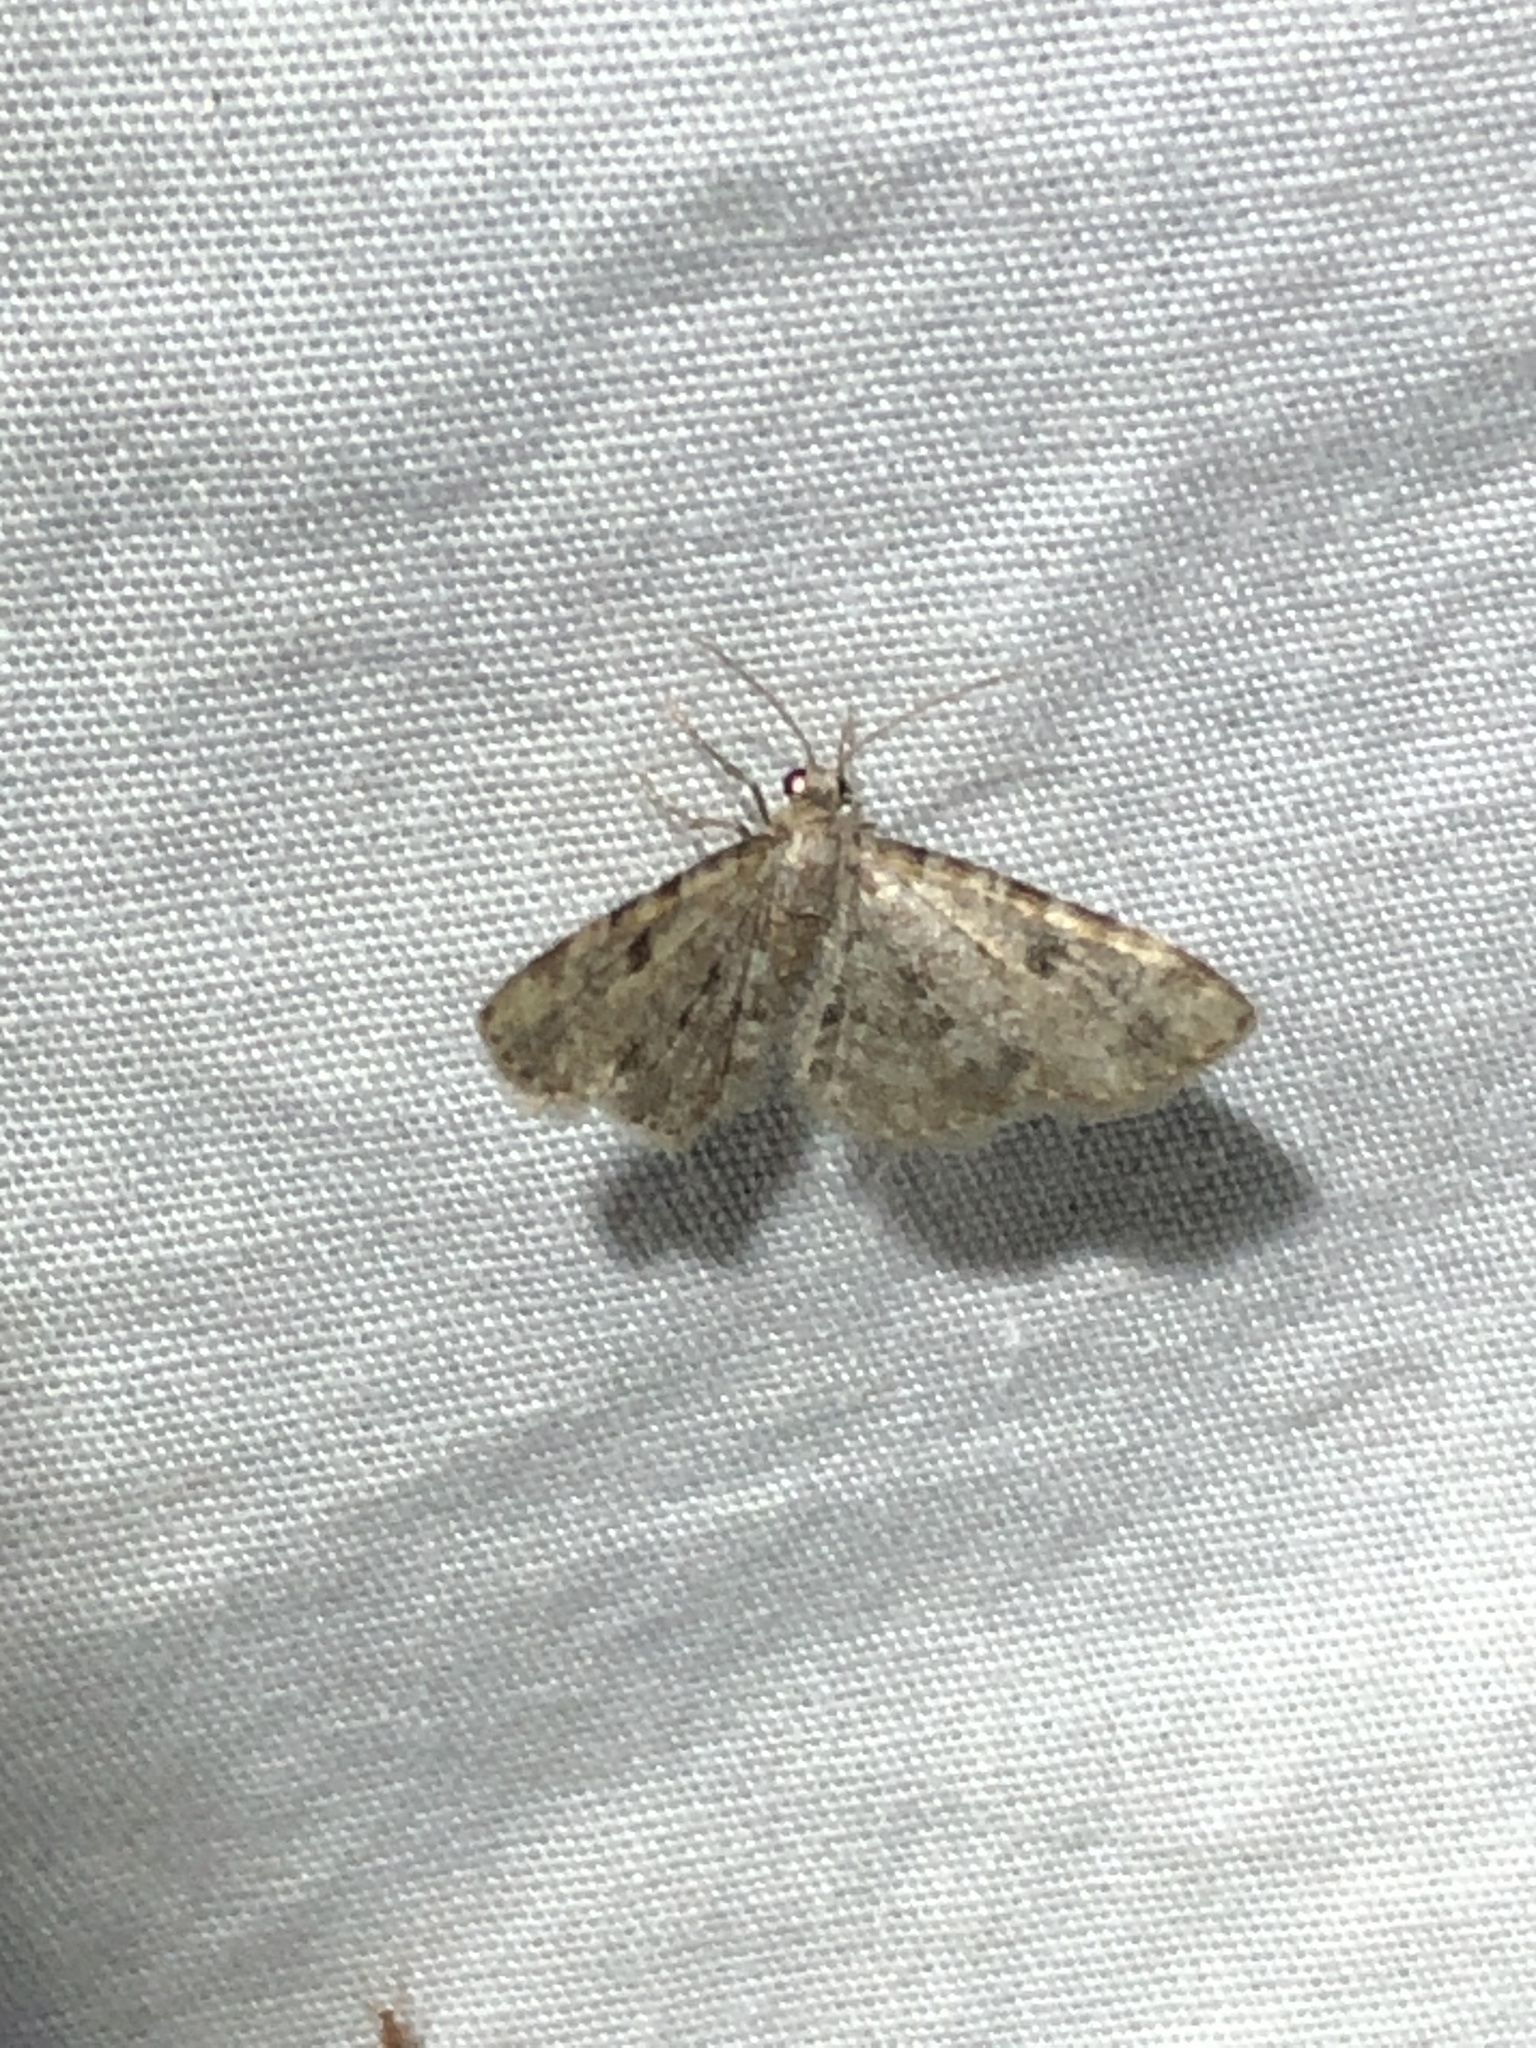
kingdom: Animalia
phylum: Arthropoda
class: Insecta
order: Lepidoptera
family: Geometridae
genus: Eupithecia
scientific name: Eupithecia
